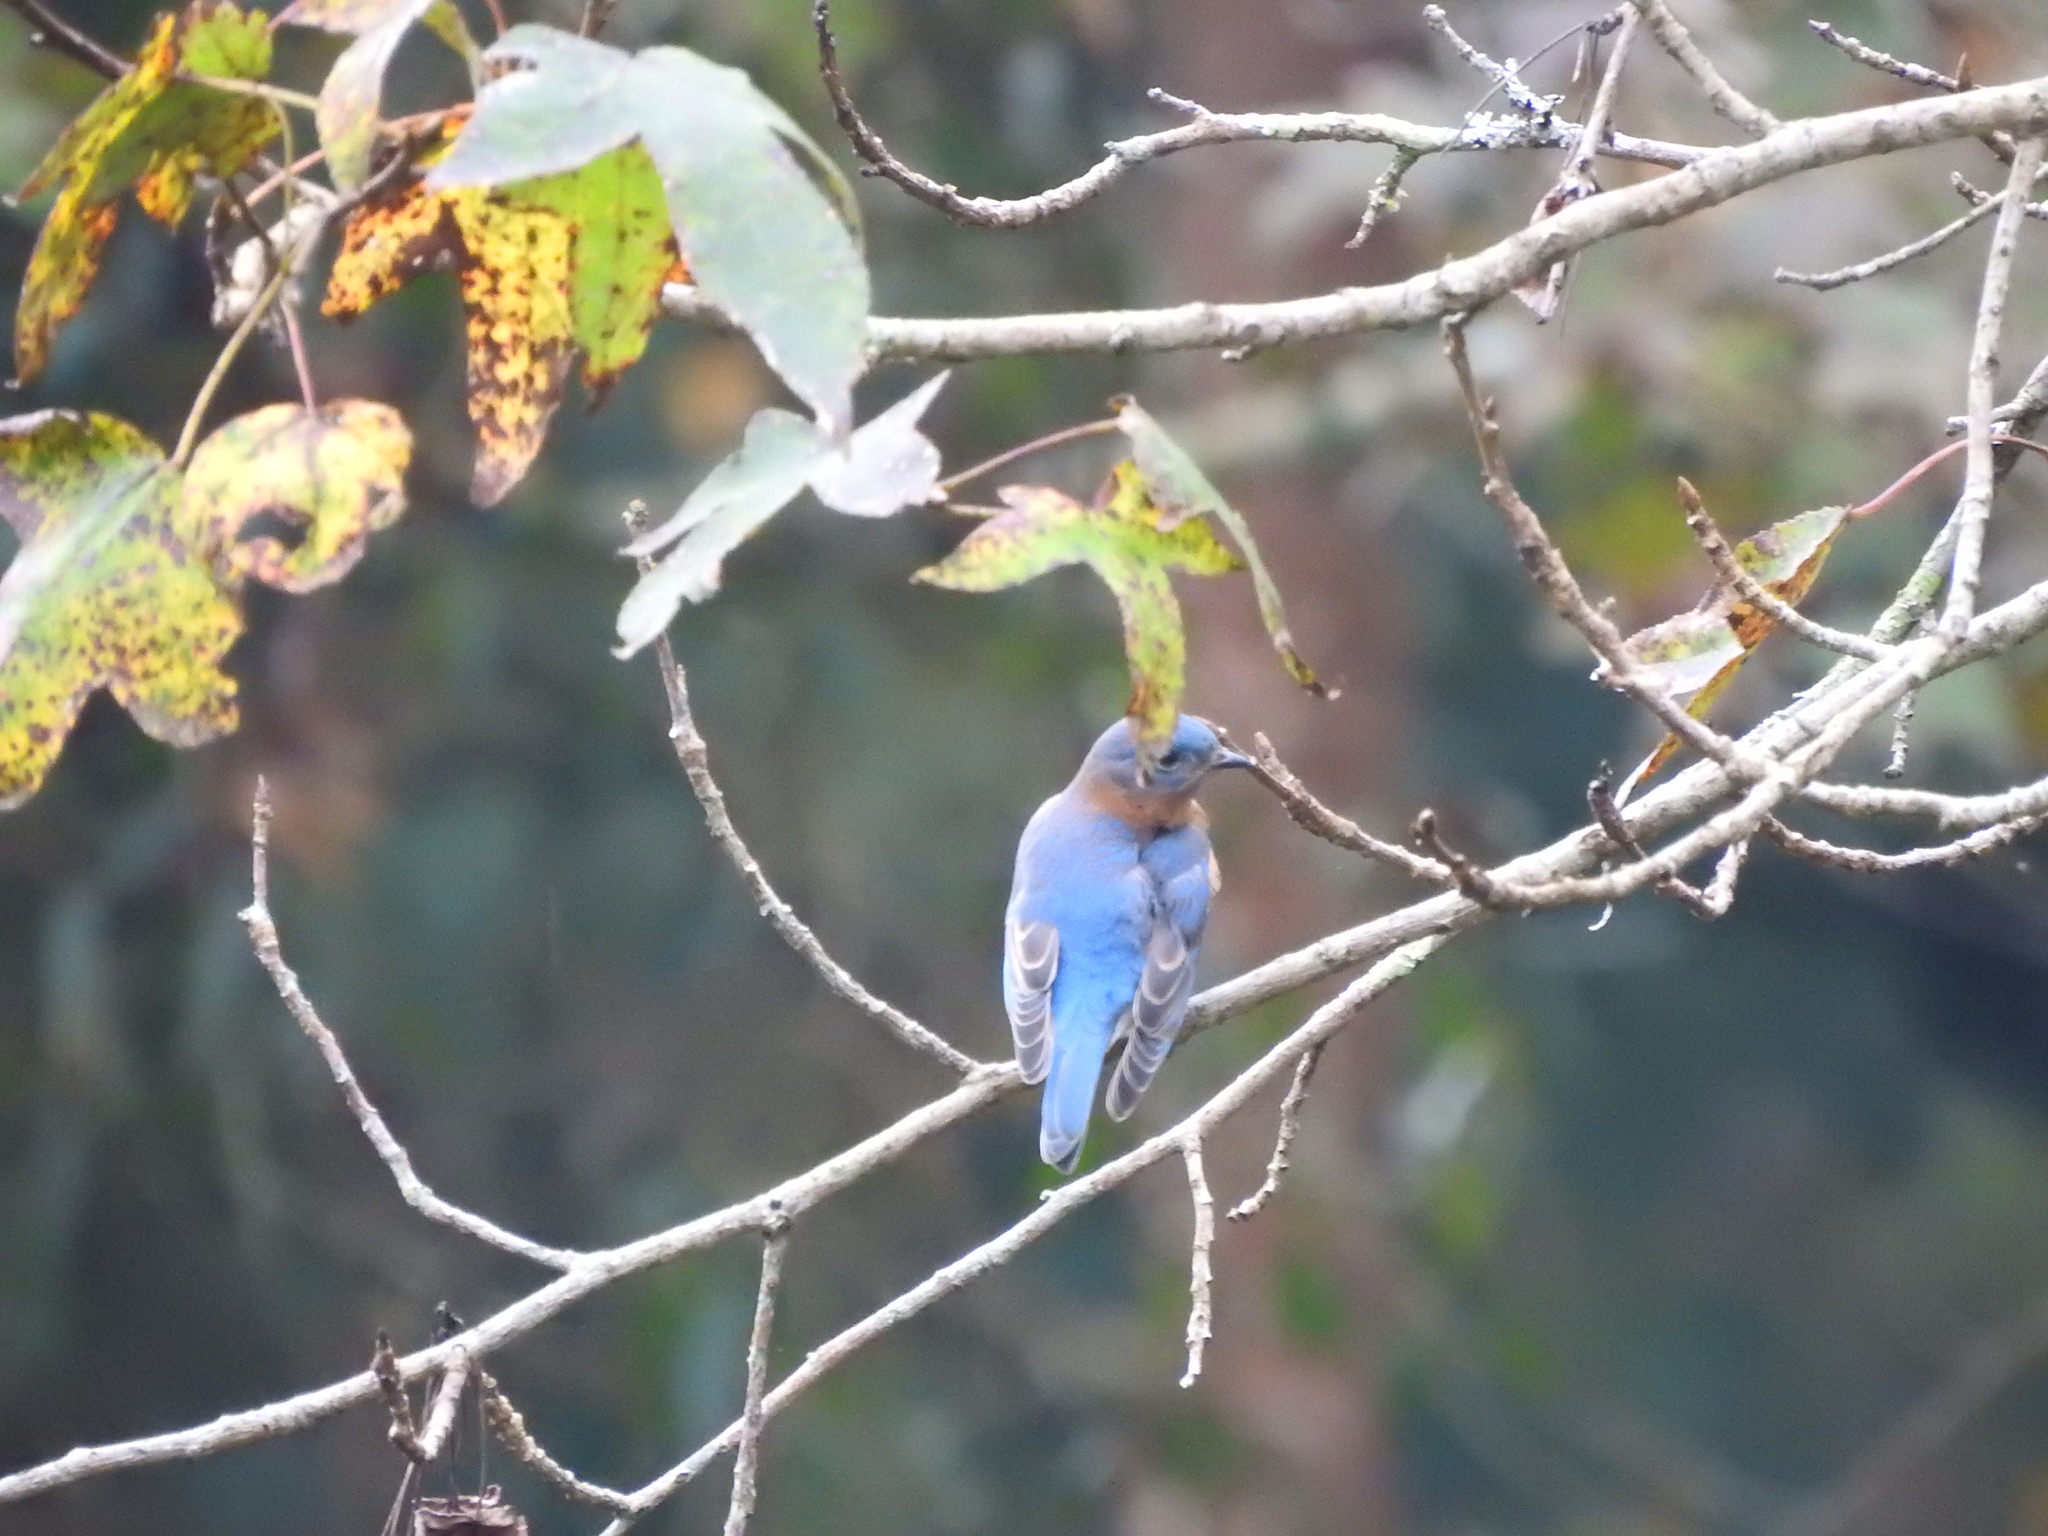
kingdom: Animalia
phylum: Chordata
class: Aves
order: Passeriformes
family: Turdidae
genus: Sialia
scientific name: Sialia sialis
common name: Eastern bluebird
